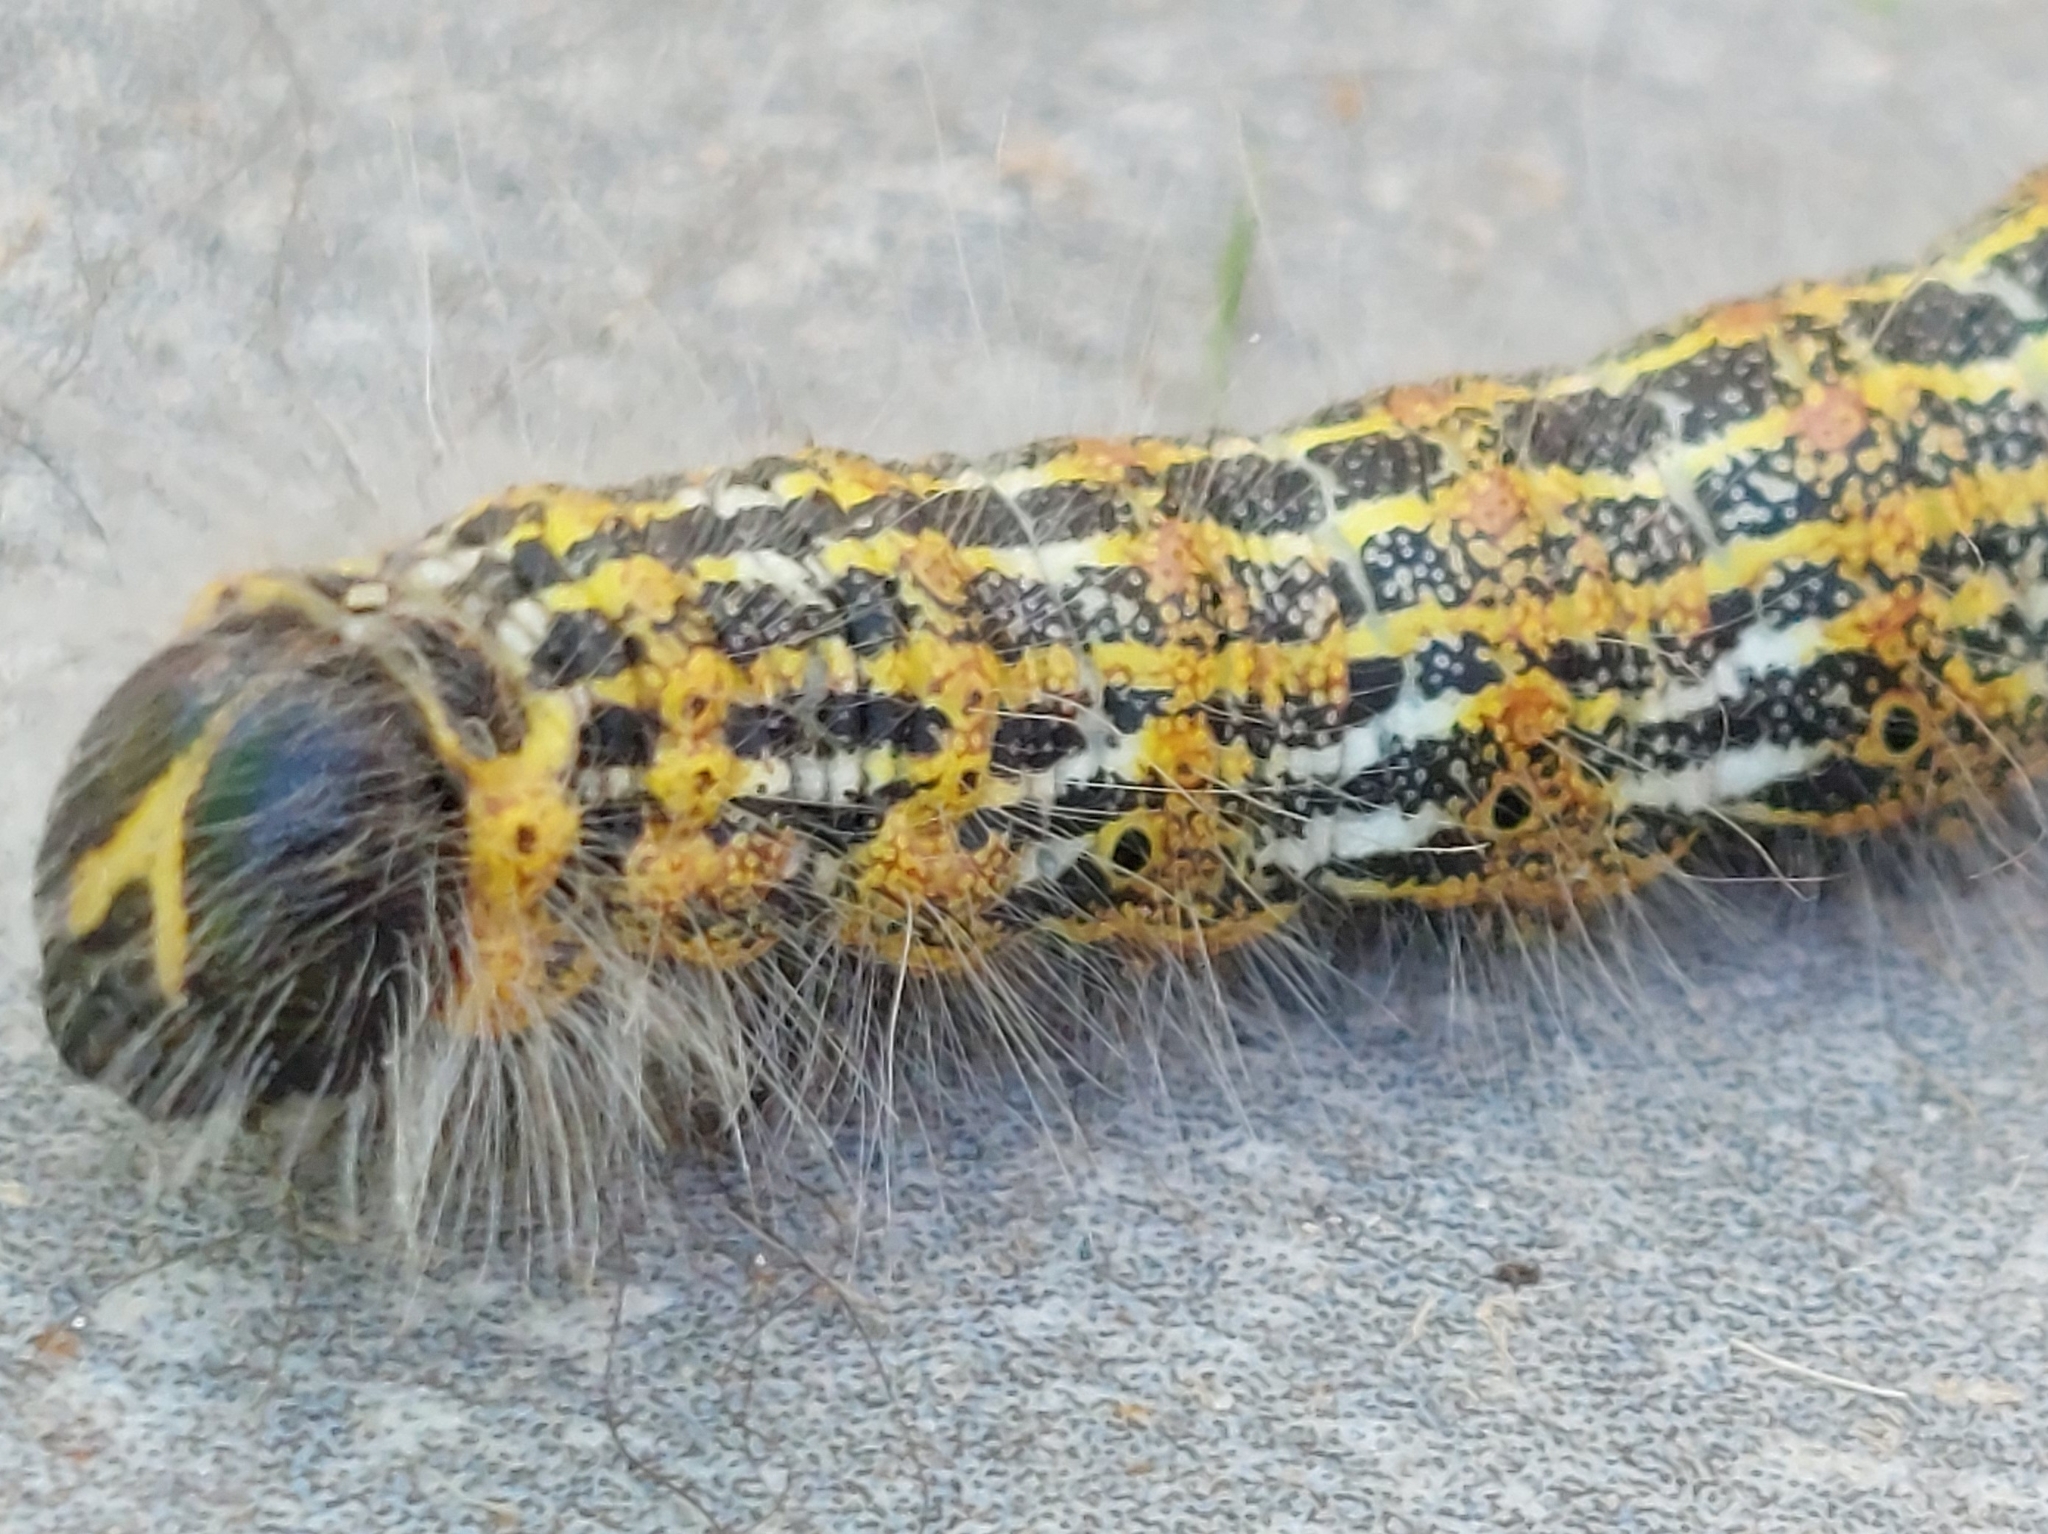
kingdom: Animalia
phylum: Arthropoda
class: Insecta
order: Lepidoptera
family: Notodontidae
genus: Phalera
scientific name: Phalera bucephala
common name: Buff-tip
